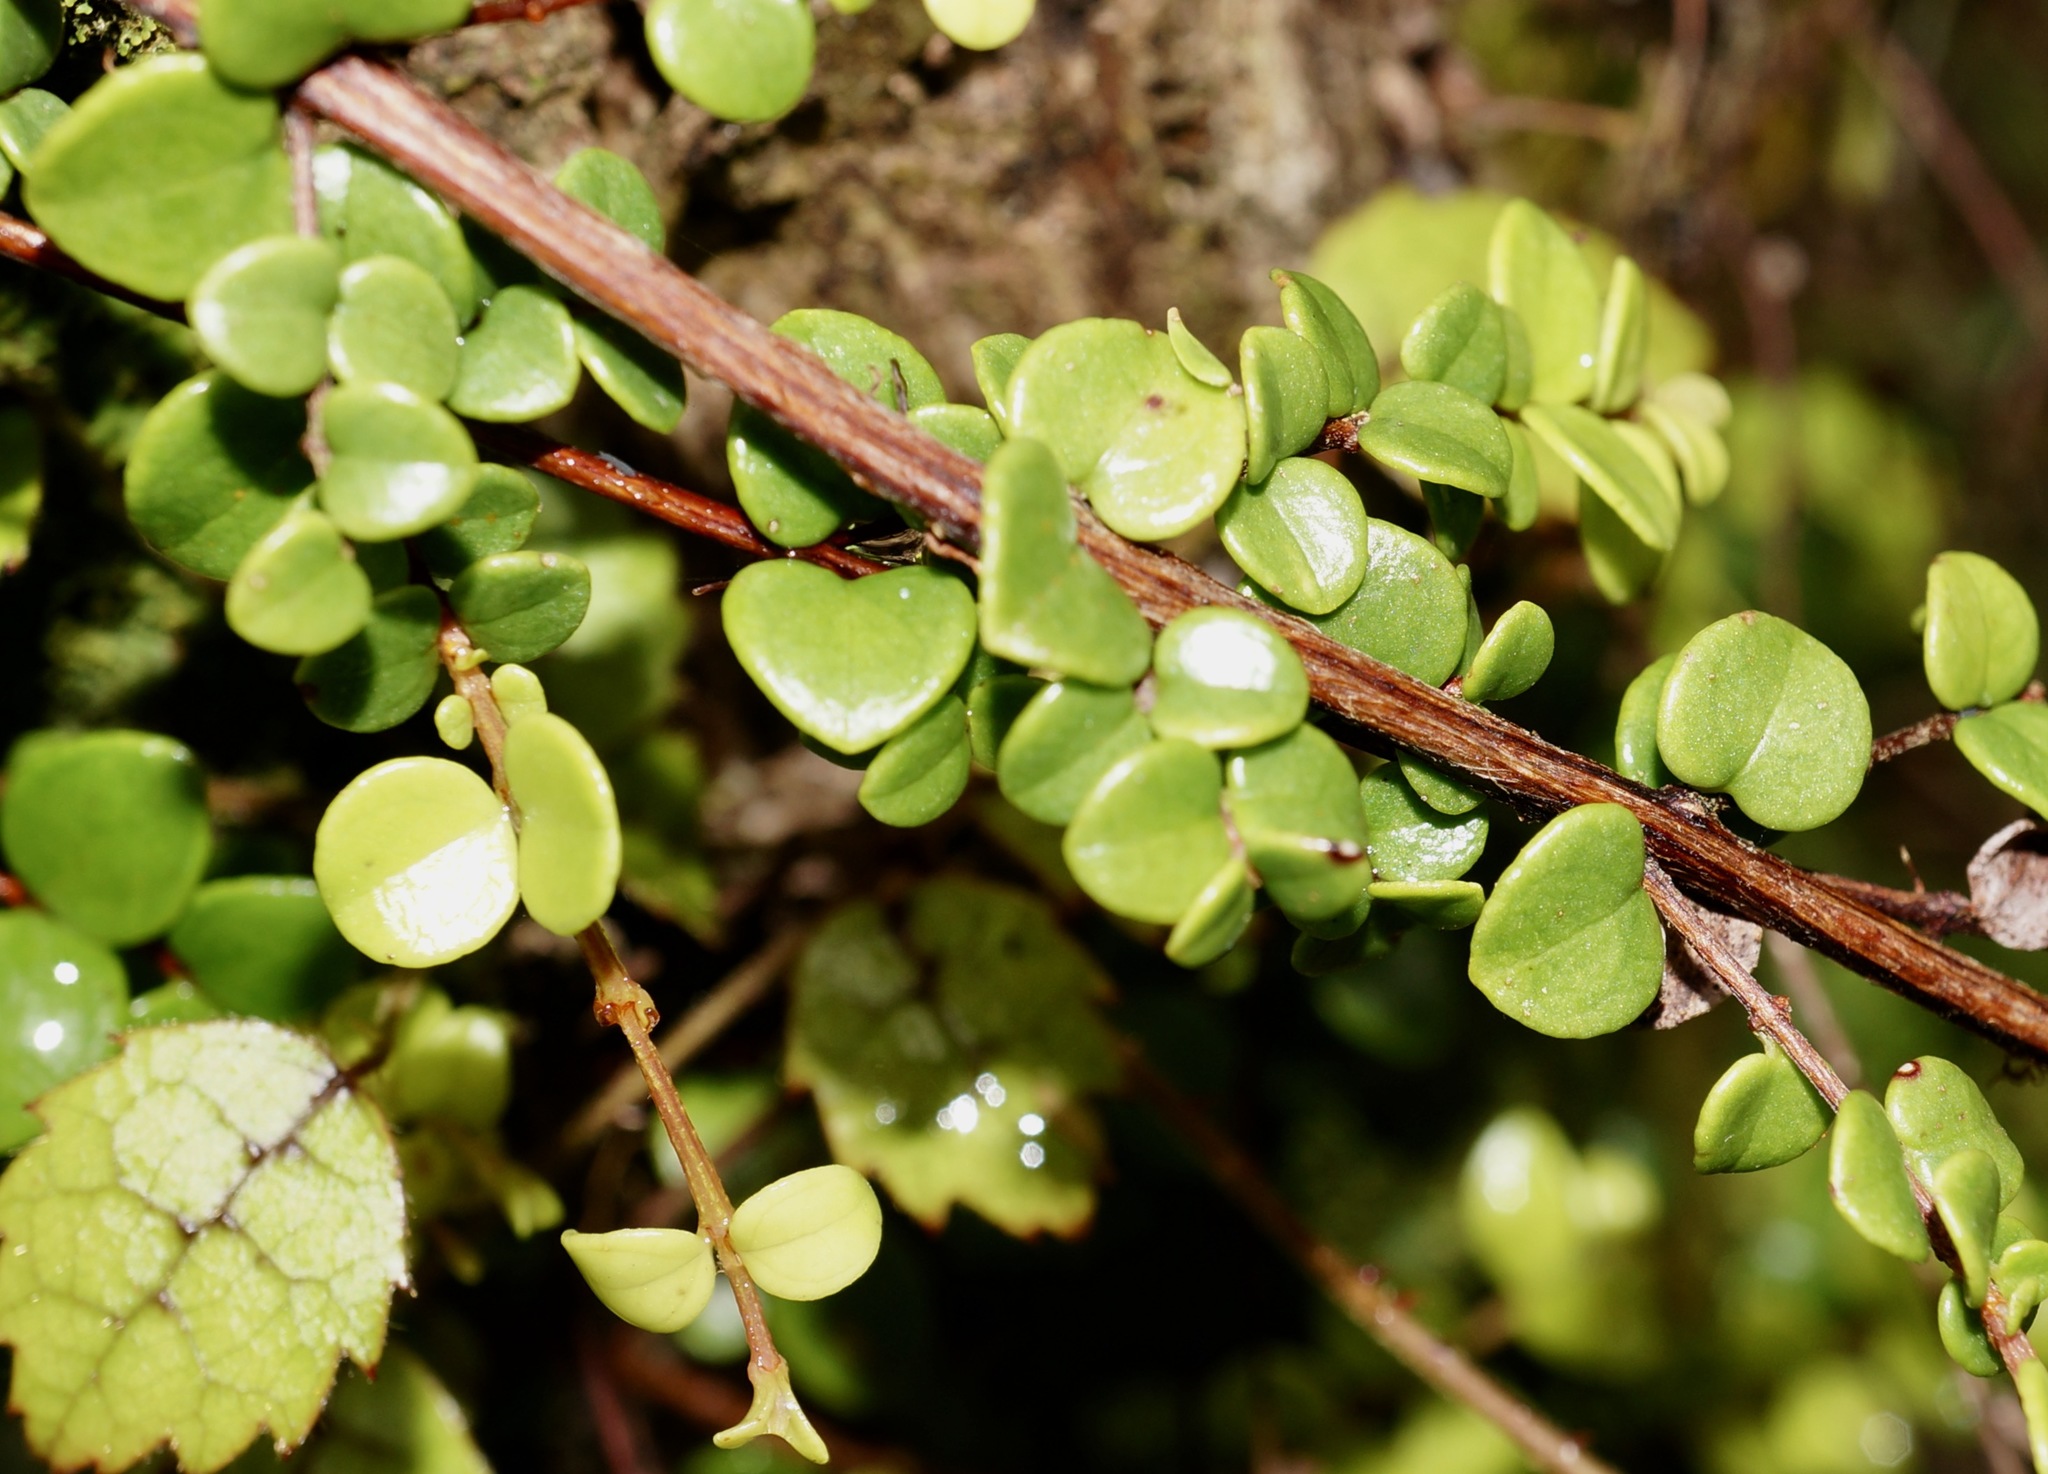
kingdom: Plantae
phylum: Tracheophyta
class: Magnoliopsida
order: Myrtales
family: Myrtaceae
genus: Metrosideros
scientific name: Metrosideros perforata
